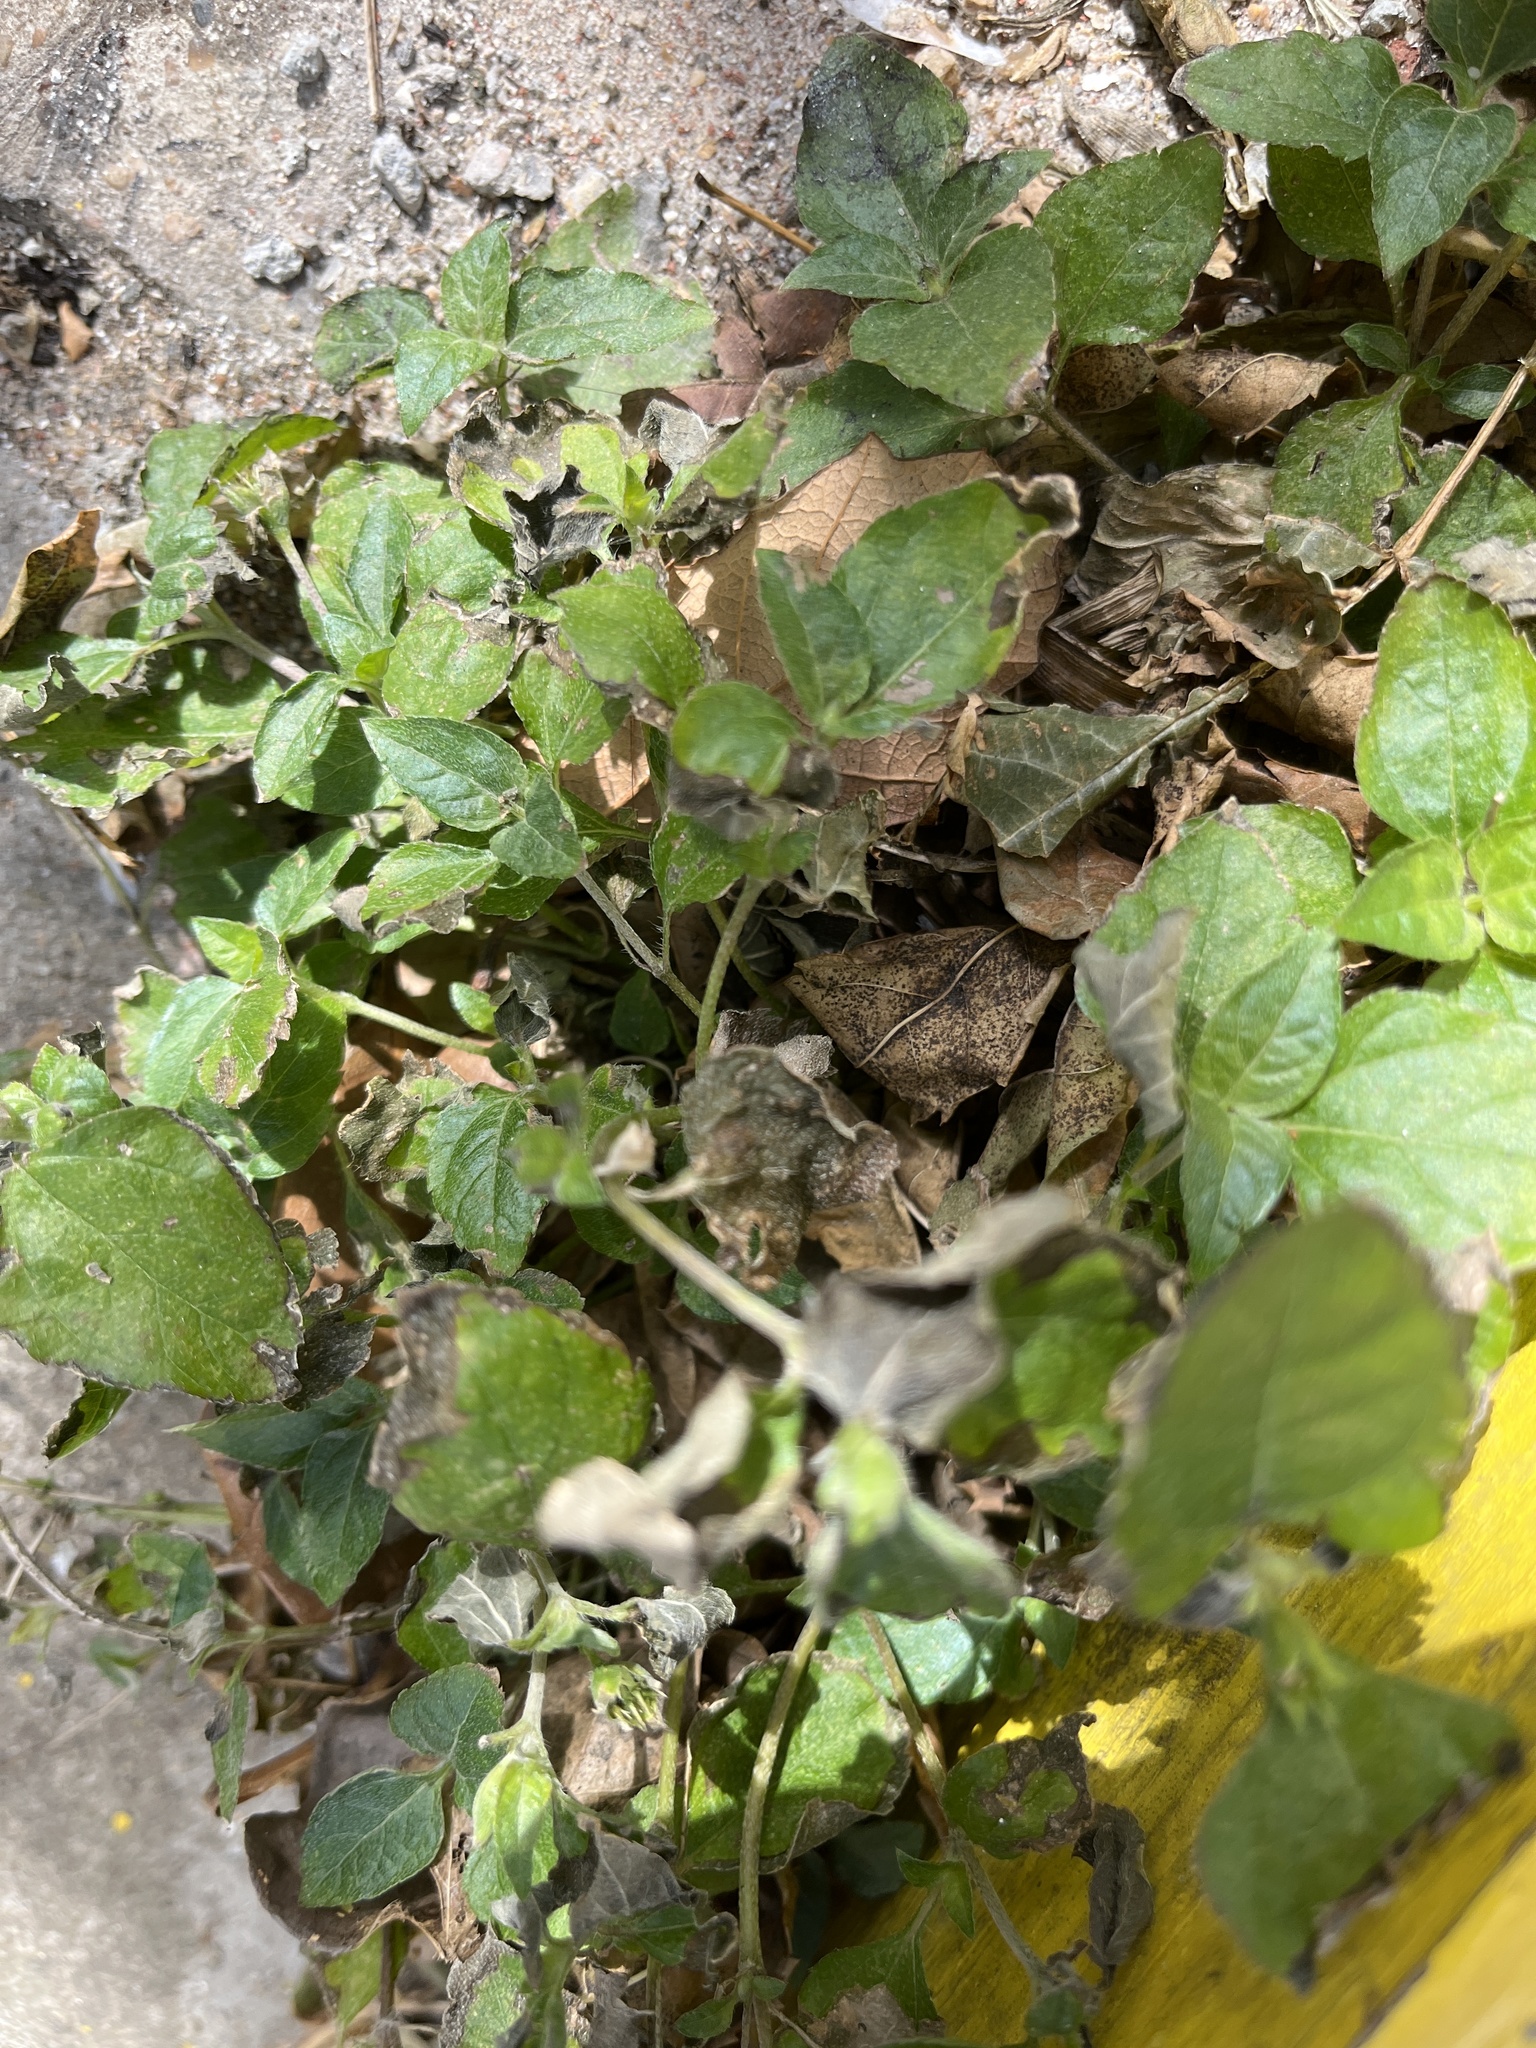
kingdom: Plantae
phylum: Tracheophyta
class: Magnoliopsida
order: Asterales
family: Asteraceae
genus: Calyptocarpus
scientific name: Calyptocarpus vialis
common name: Straggler daisy
